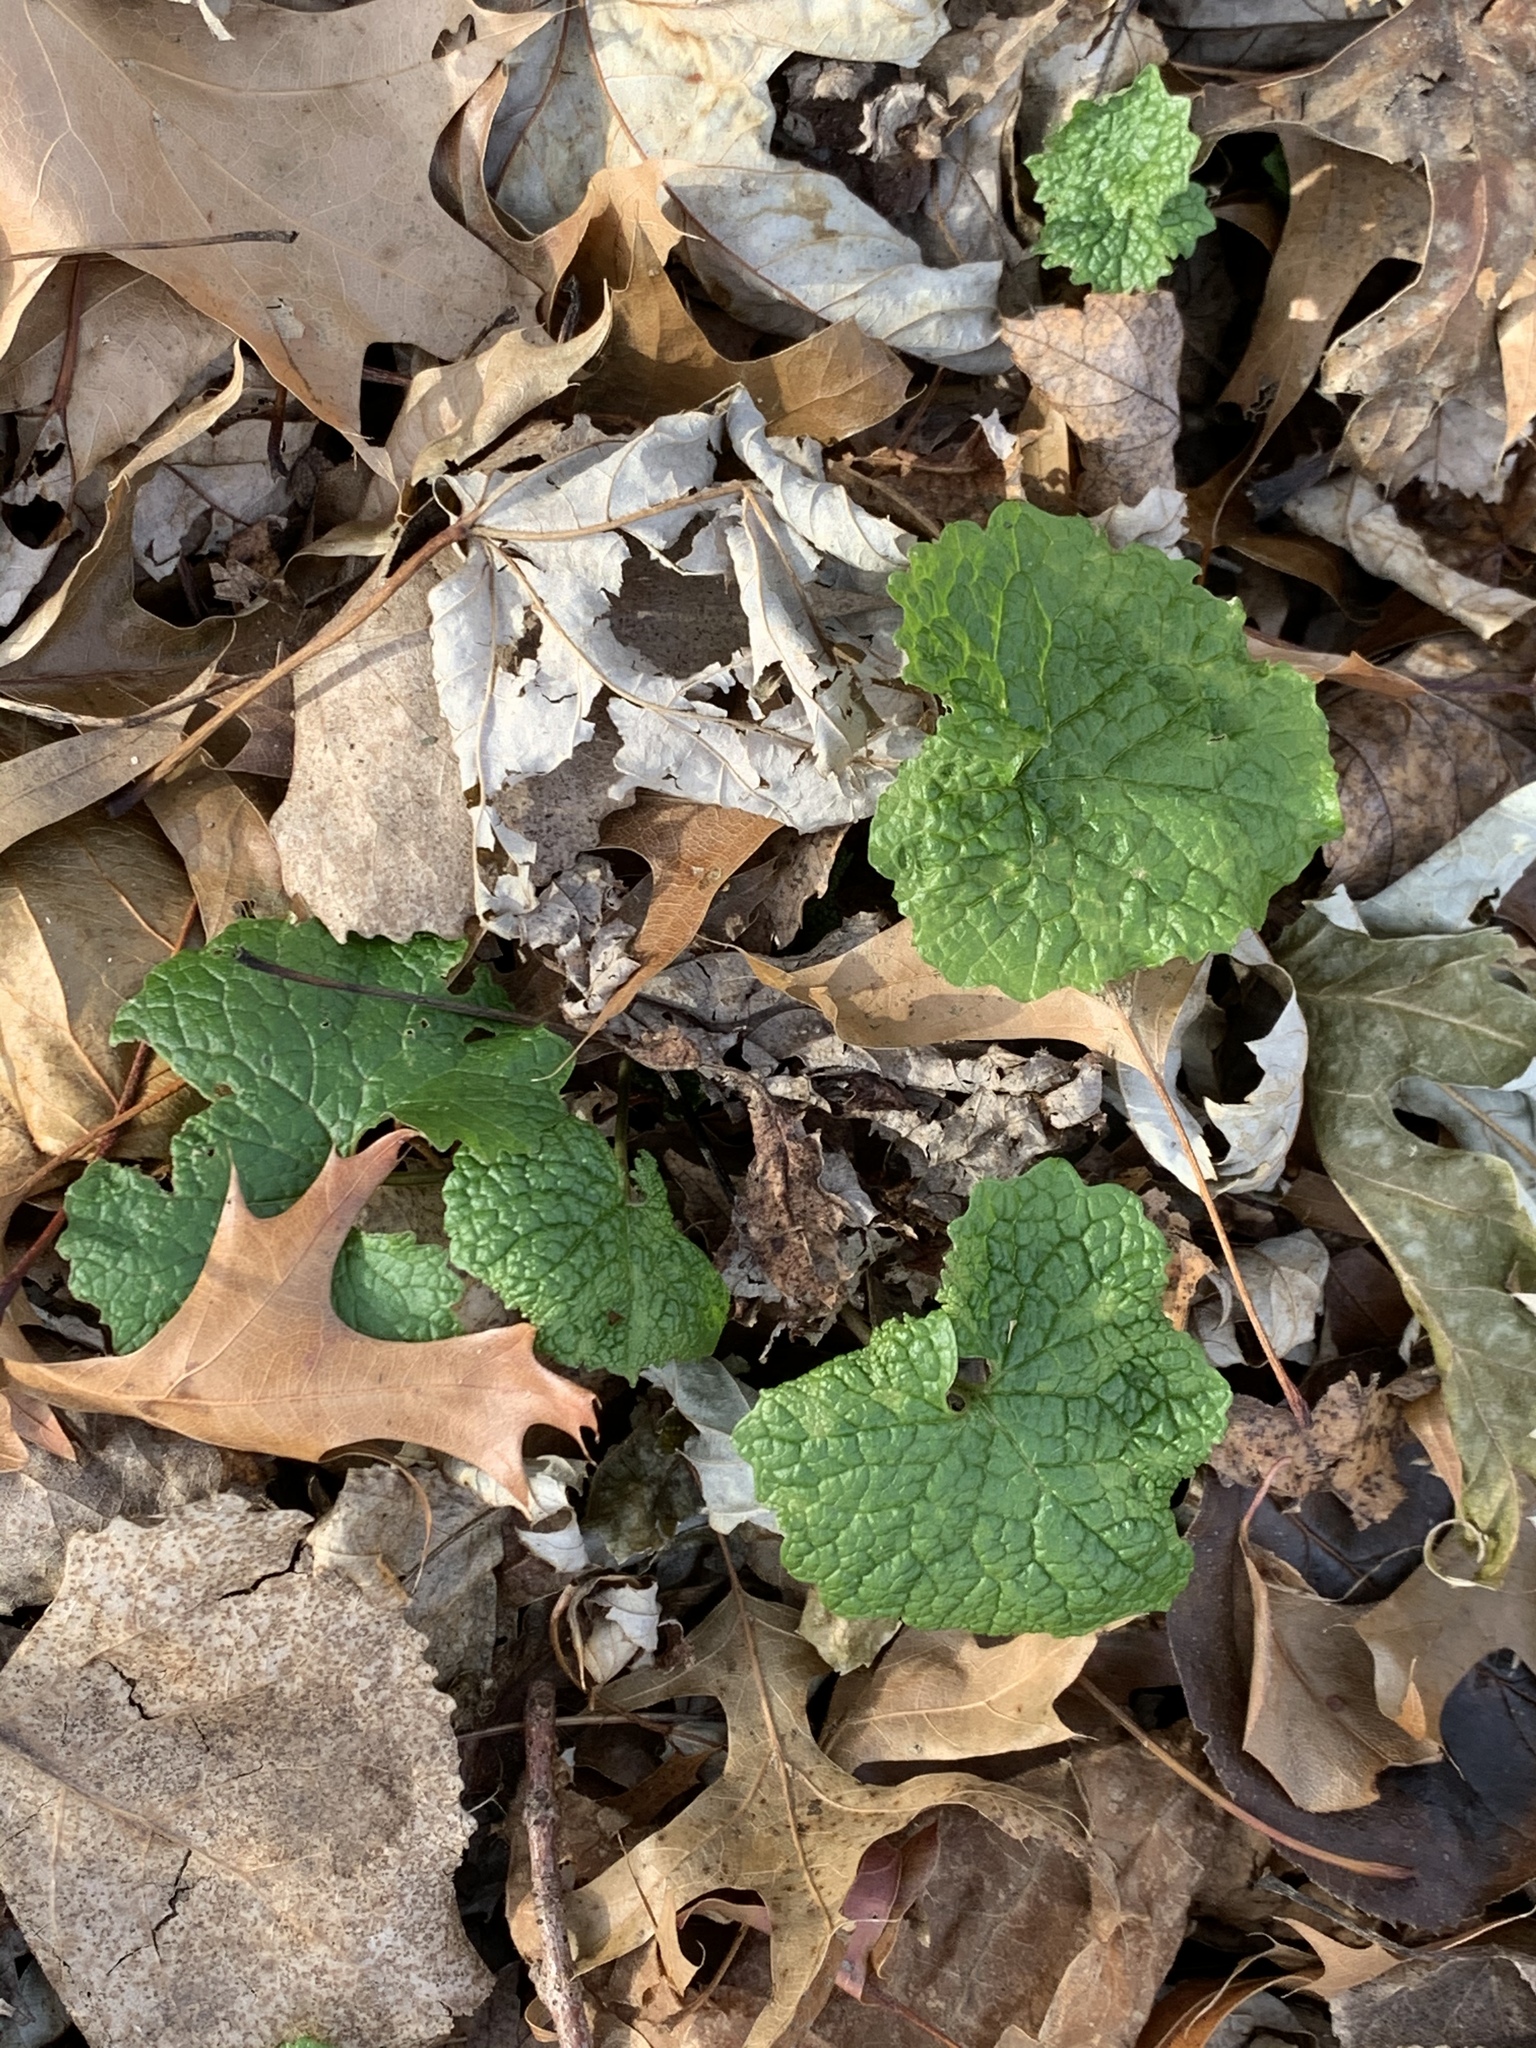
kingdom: Plantae
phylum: Tracheophyta
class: Magnoliopsida
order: Brassicales
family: Brassicaceae
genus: Alliaria
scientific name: Alliaria petiolata
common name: Garlic mustard
